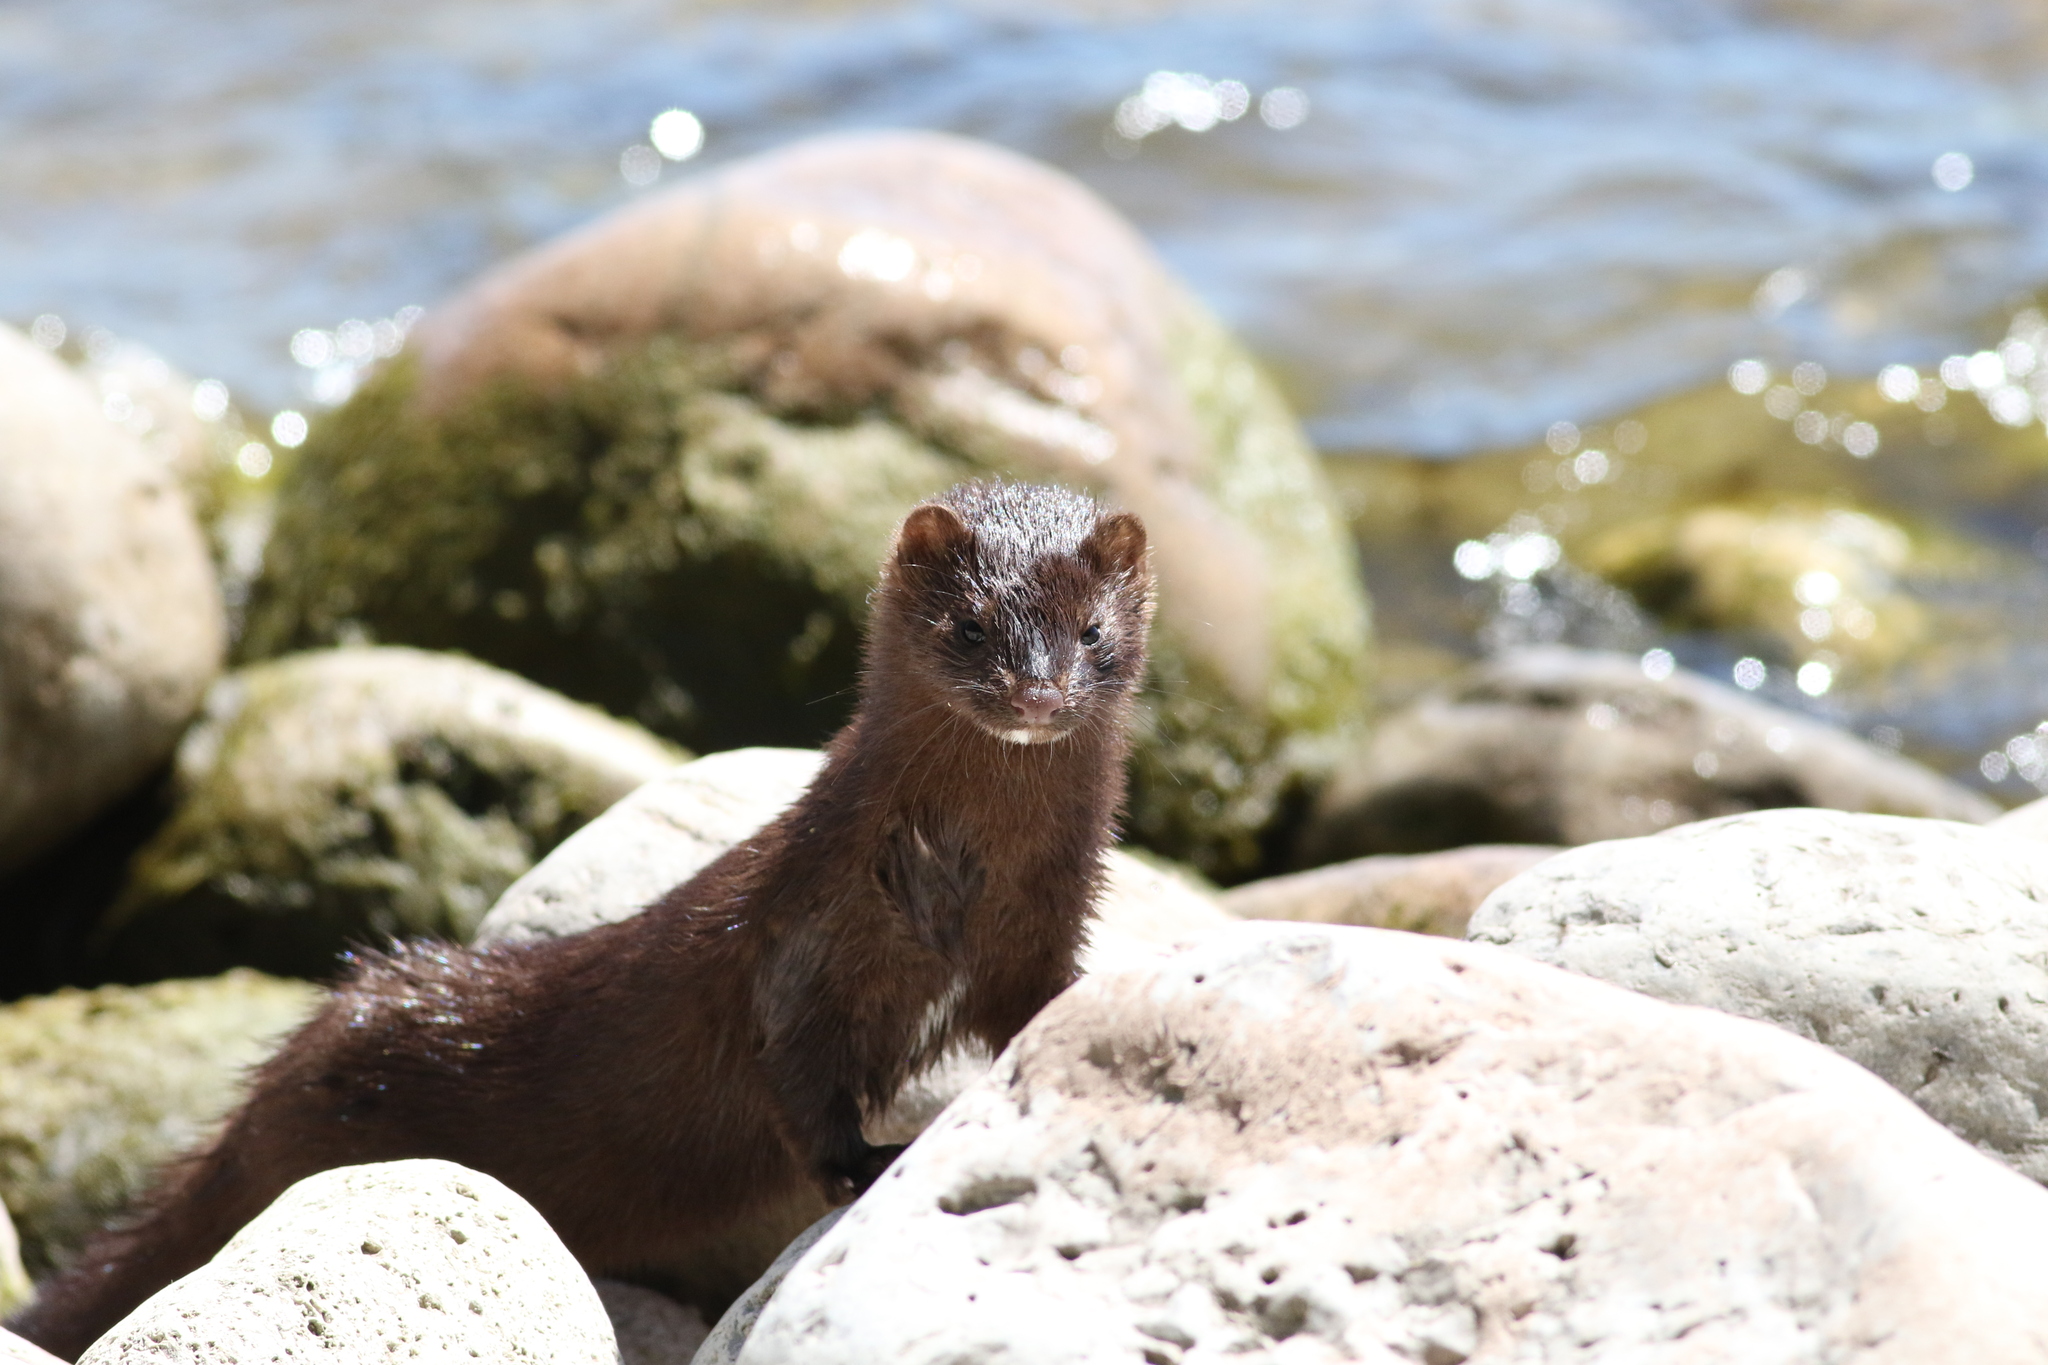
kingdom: Animalia
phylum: Chordata
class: Mammalia
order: Carnivora
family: Mustelidae
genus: Mustela
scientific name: Mustela
